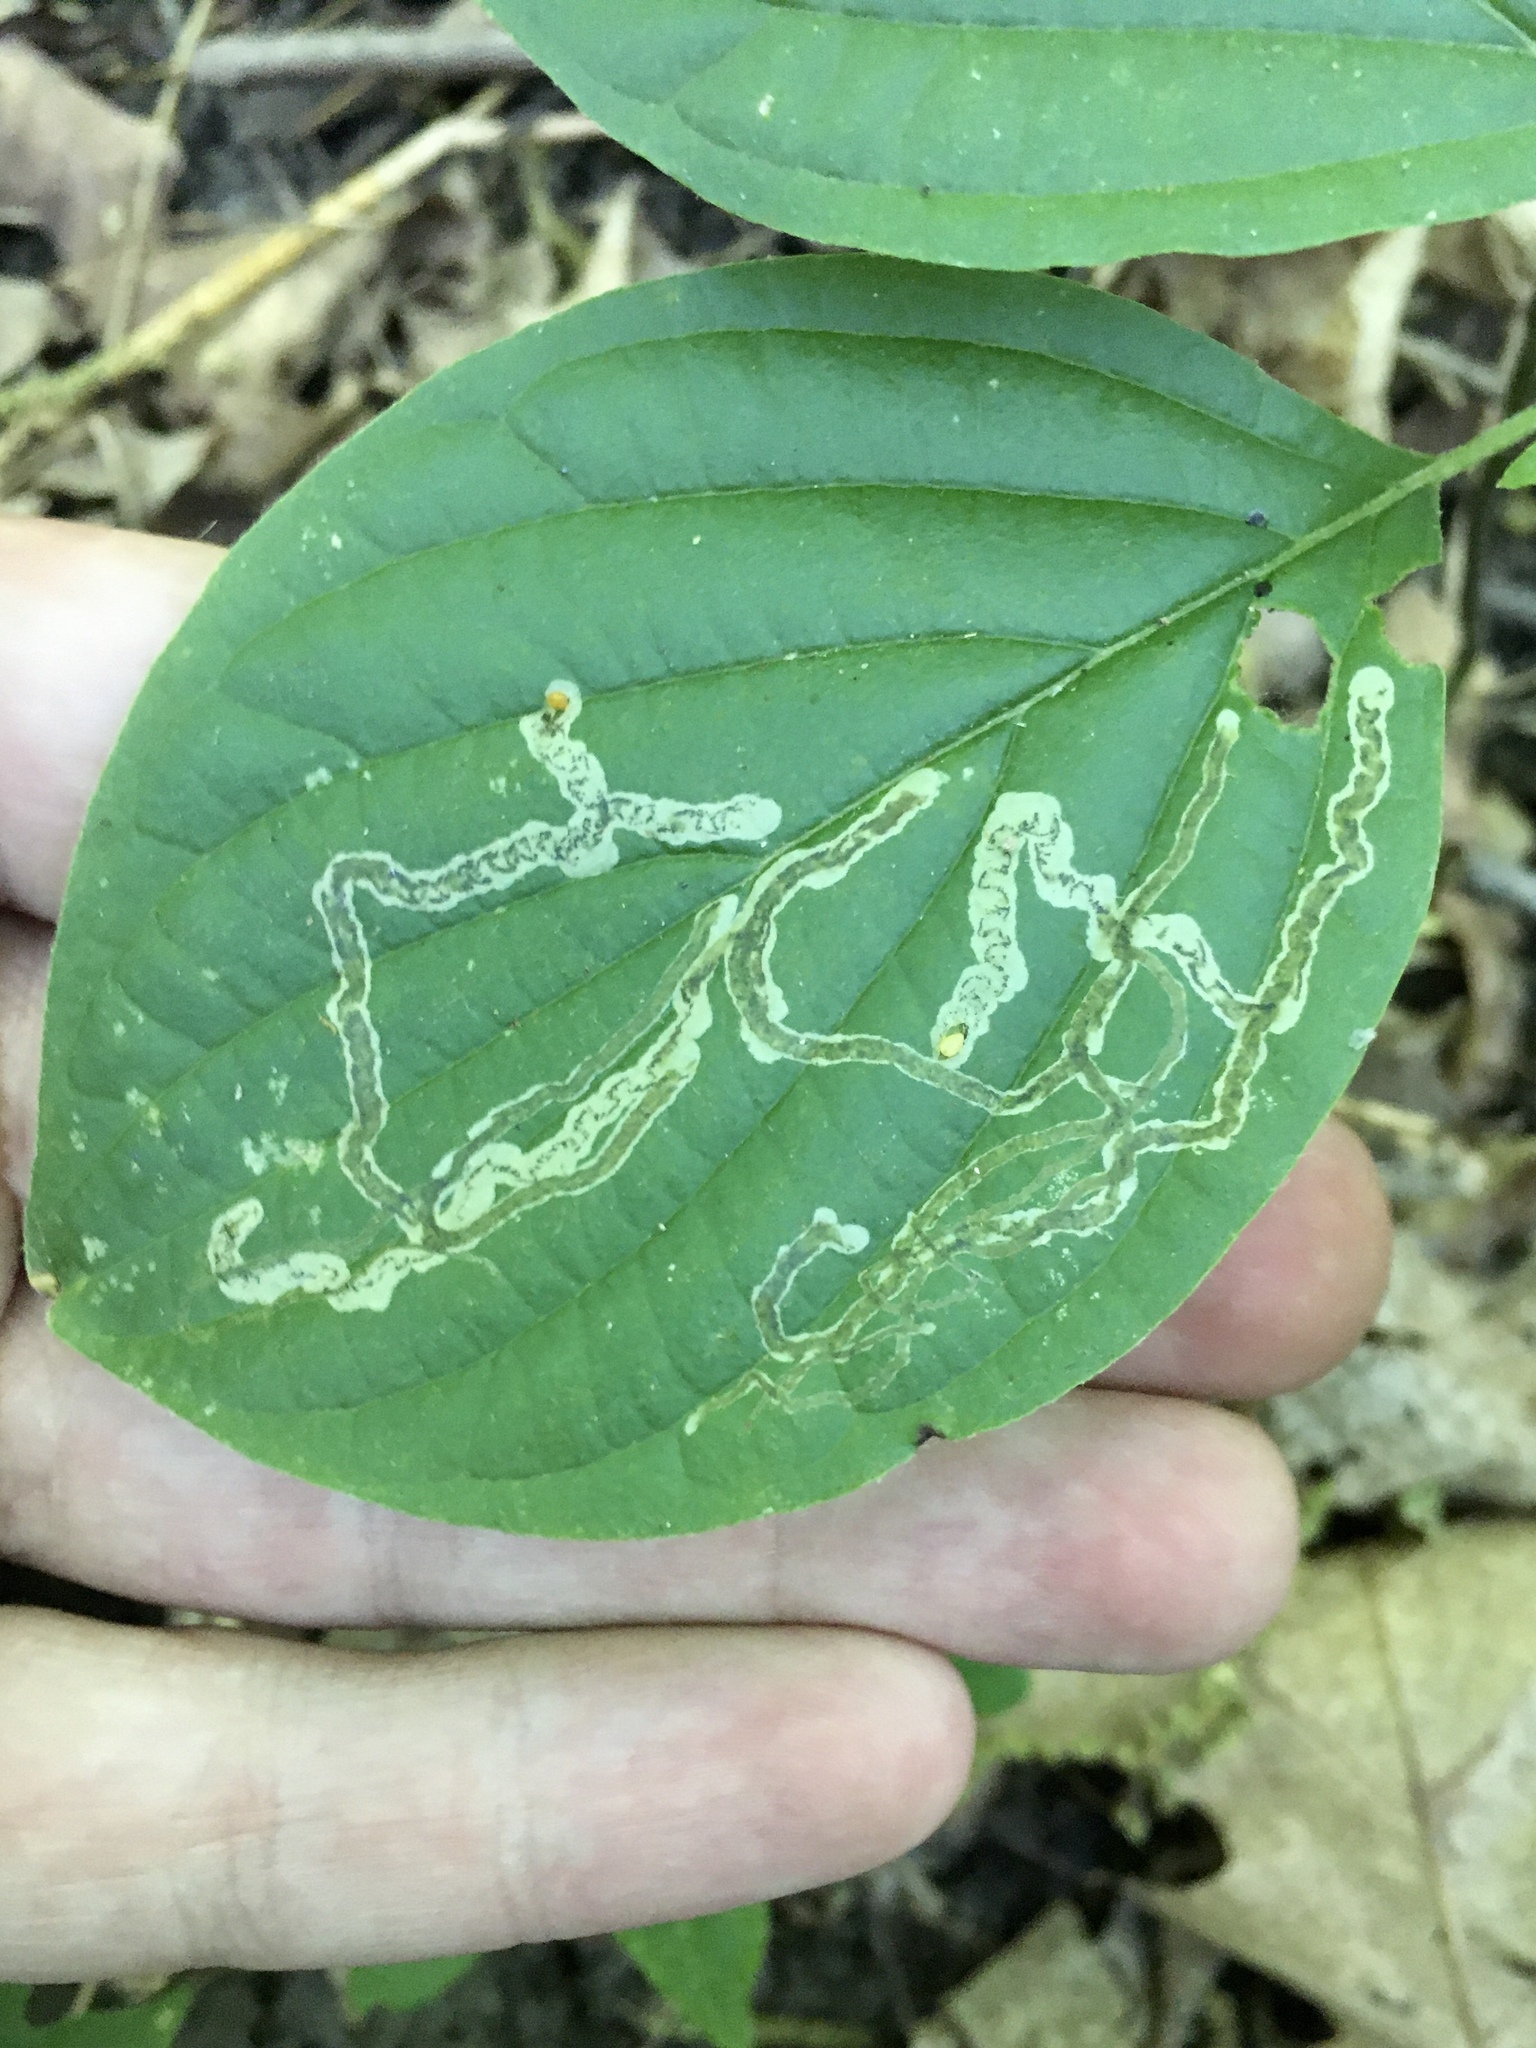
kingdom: Animalia
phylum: Arthropoda
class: Insecta
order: Diptera
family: Agromyzidae
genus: Phytomyza
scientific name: Phytomyza agromyzina
